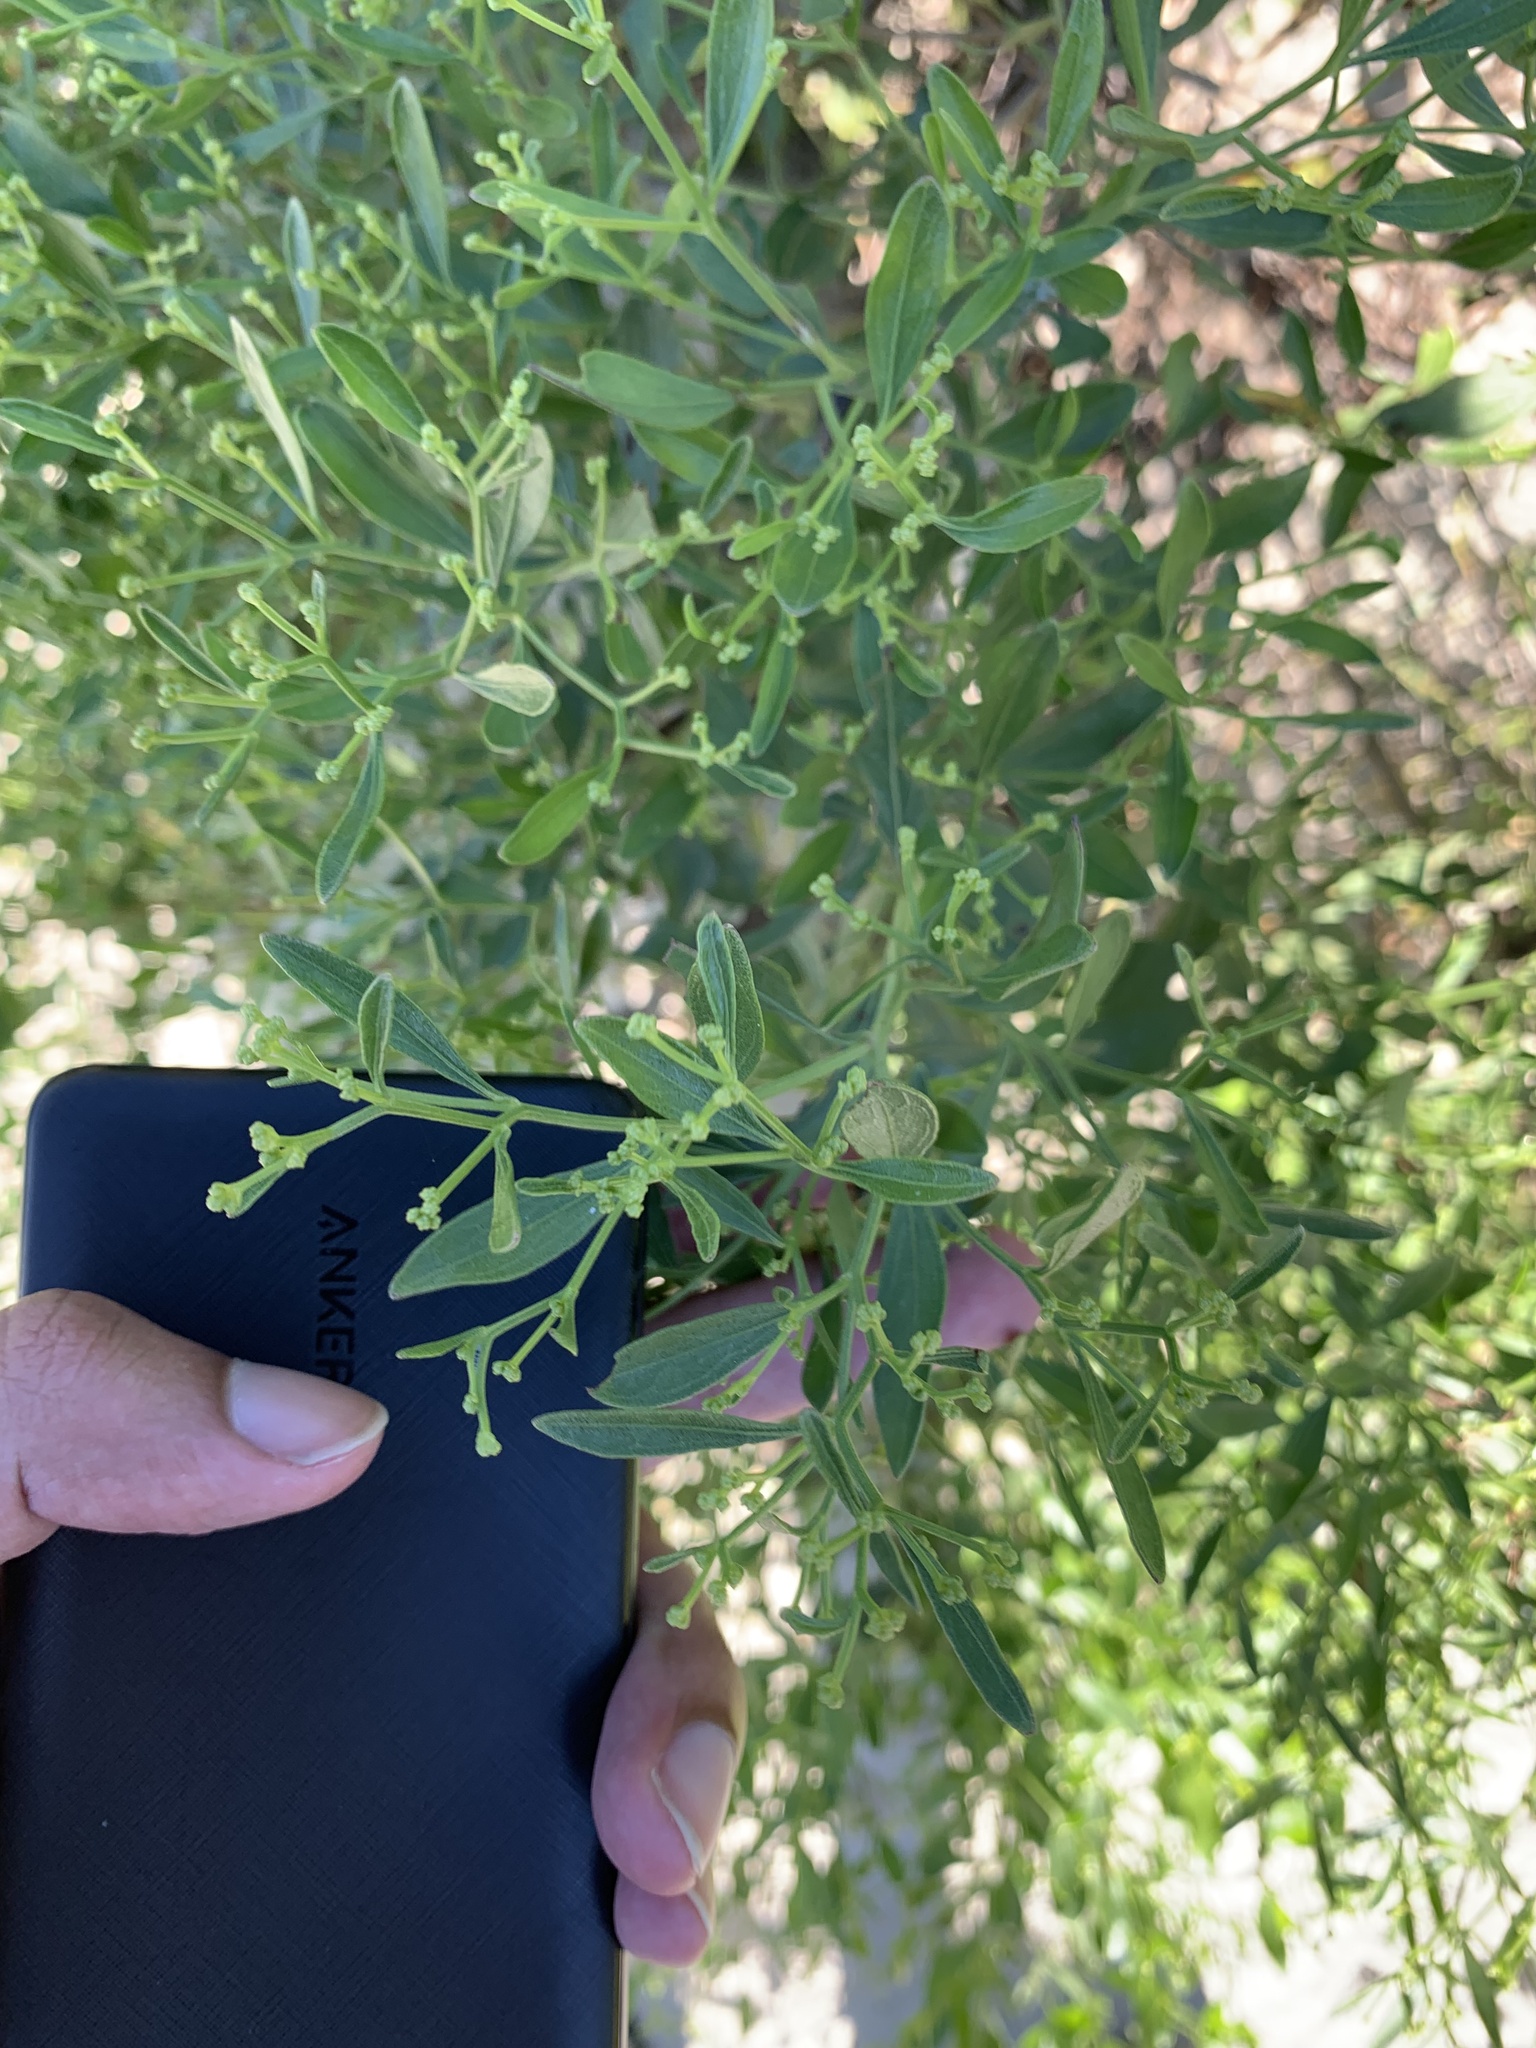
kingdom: Plantae
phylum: Tracheophyta
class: Magnoliopsida
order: Asterales
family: Asteraceae
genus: Baccharis
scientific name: Baccharis halimifolia
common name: Eastern baccharis
